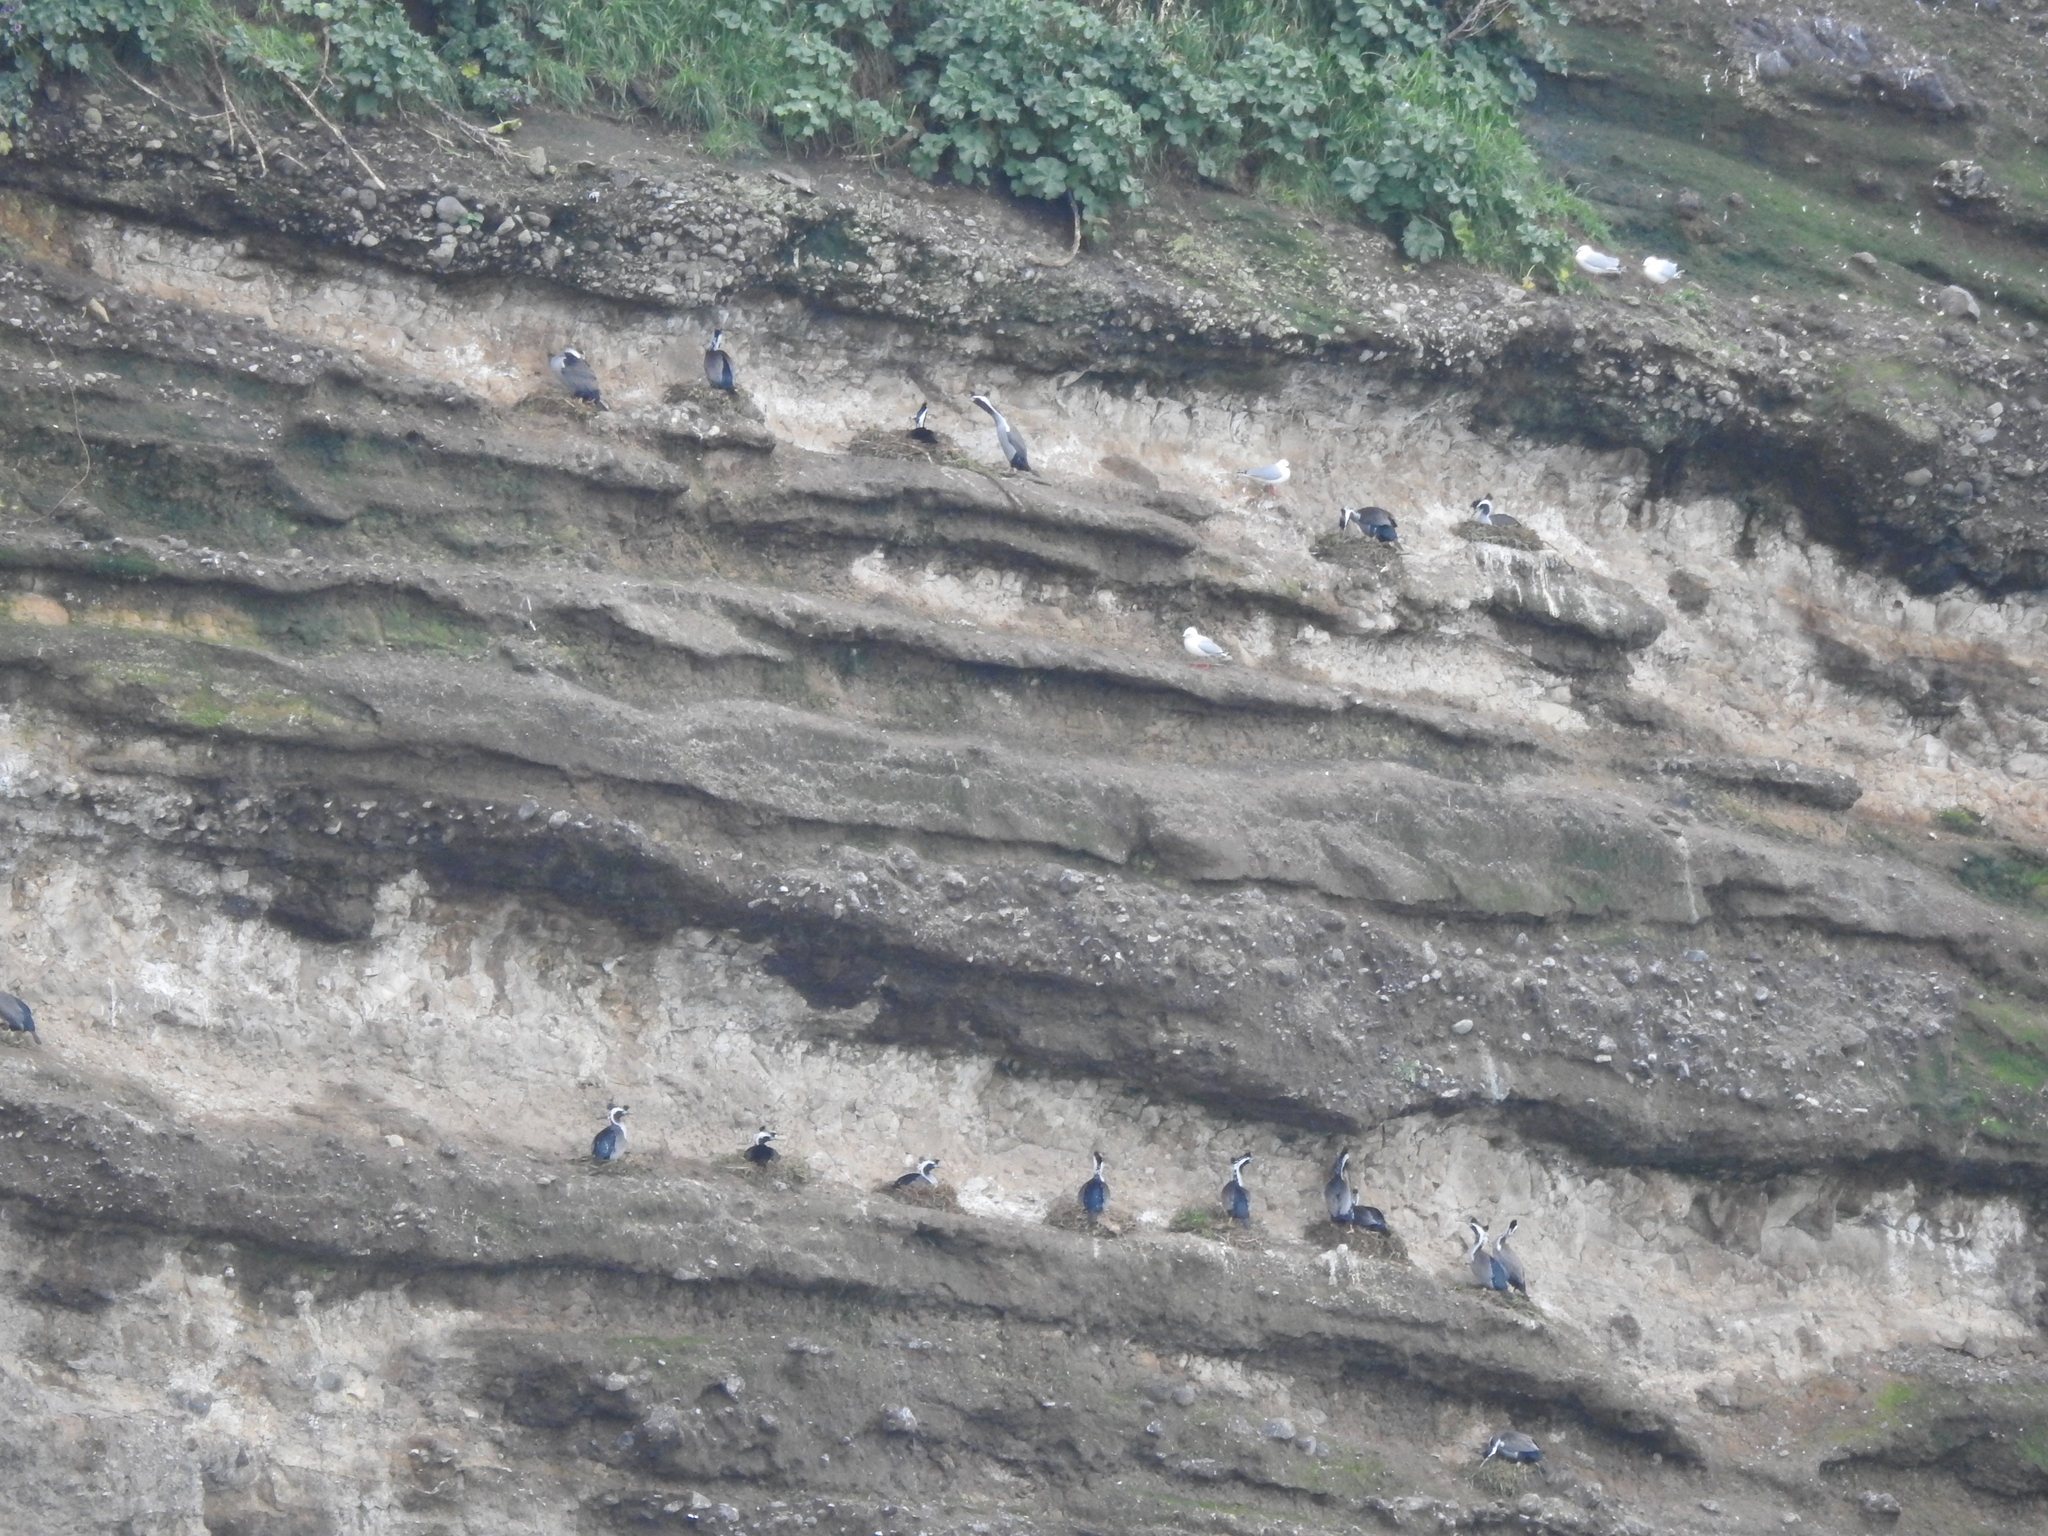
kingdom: Animalia
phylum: Chordata
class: Aves
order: Suliformes
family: Phalacrocoracidae
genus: Phalacrocorax
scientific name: Phalacrocorax punctatus
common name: Spotted shag
